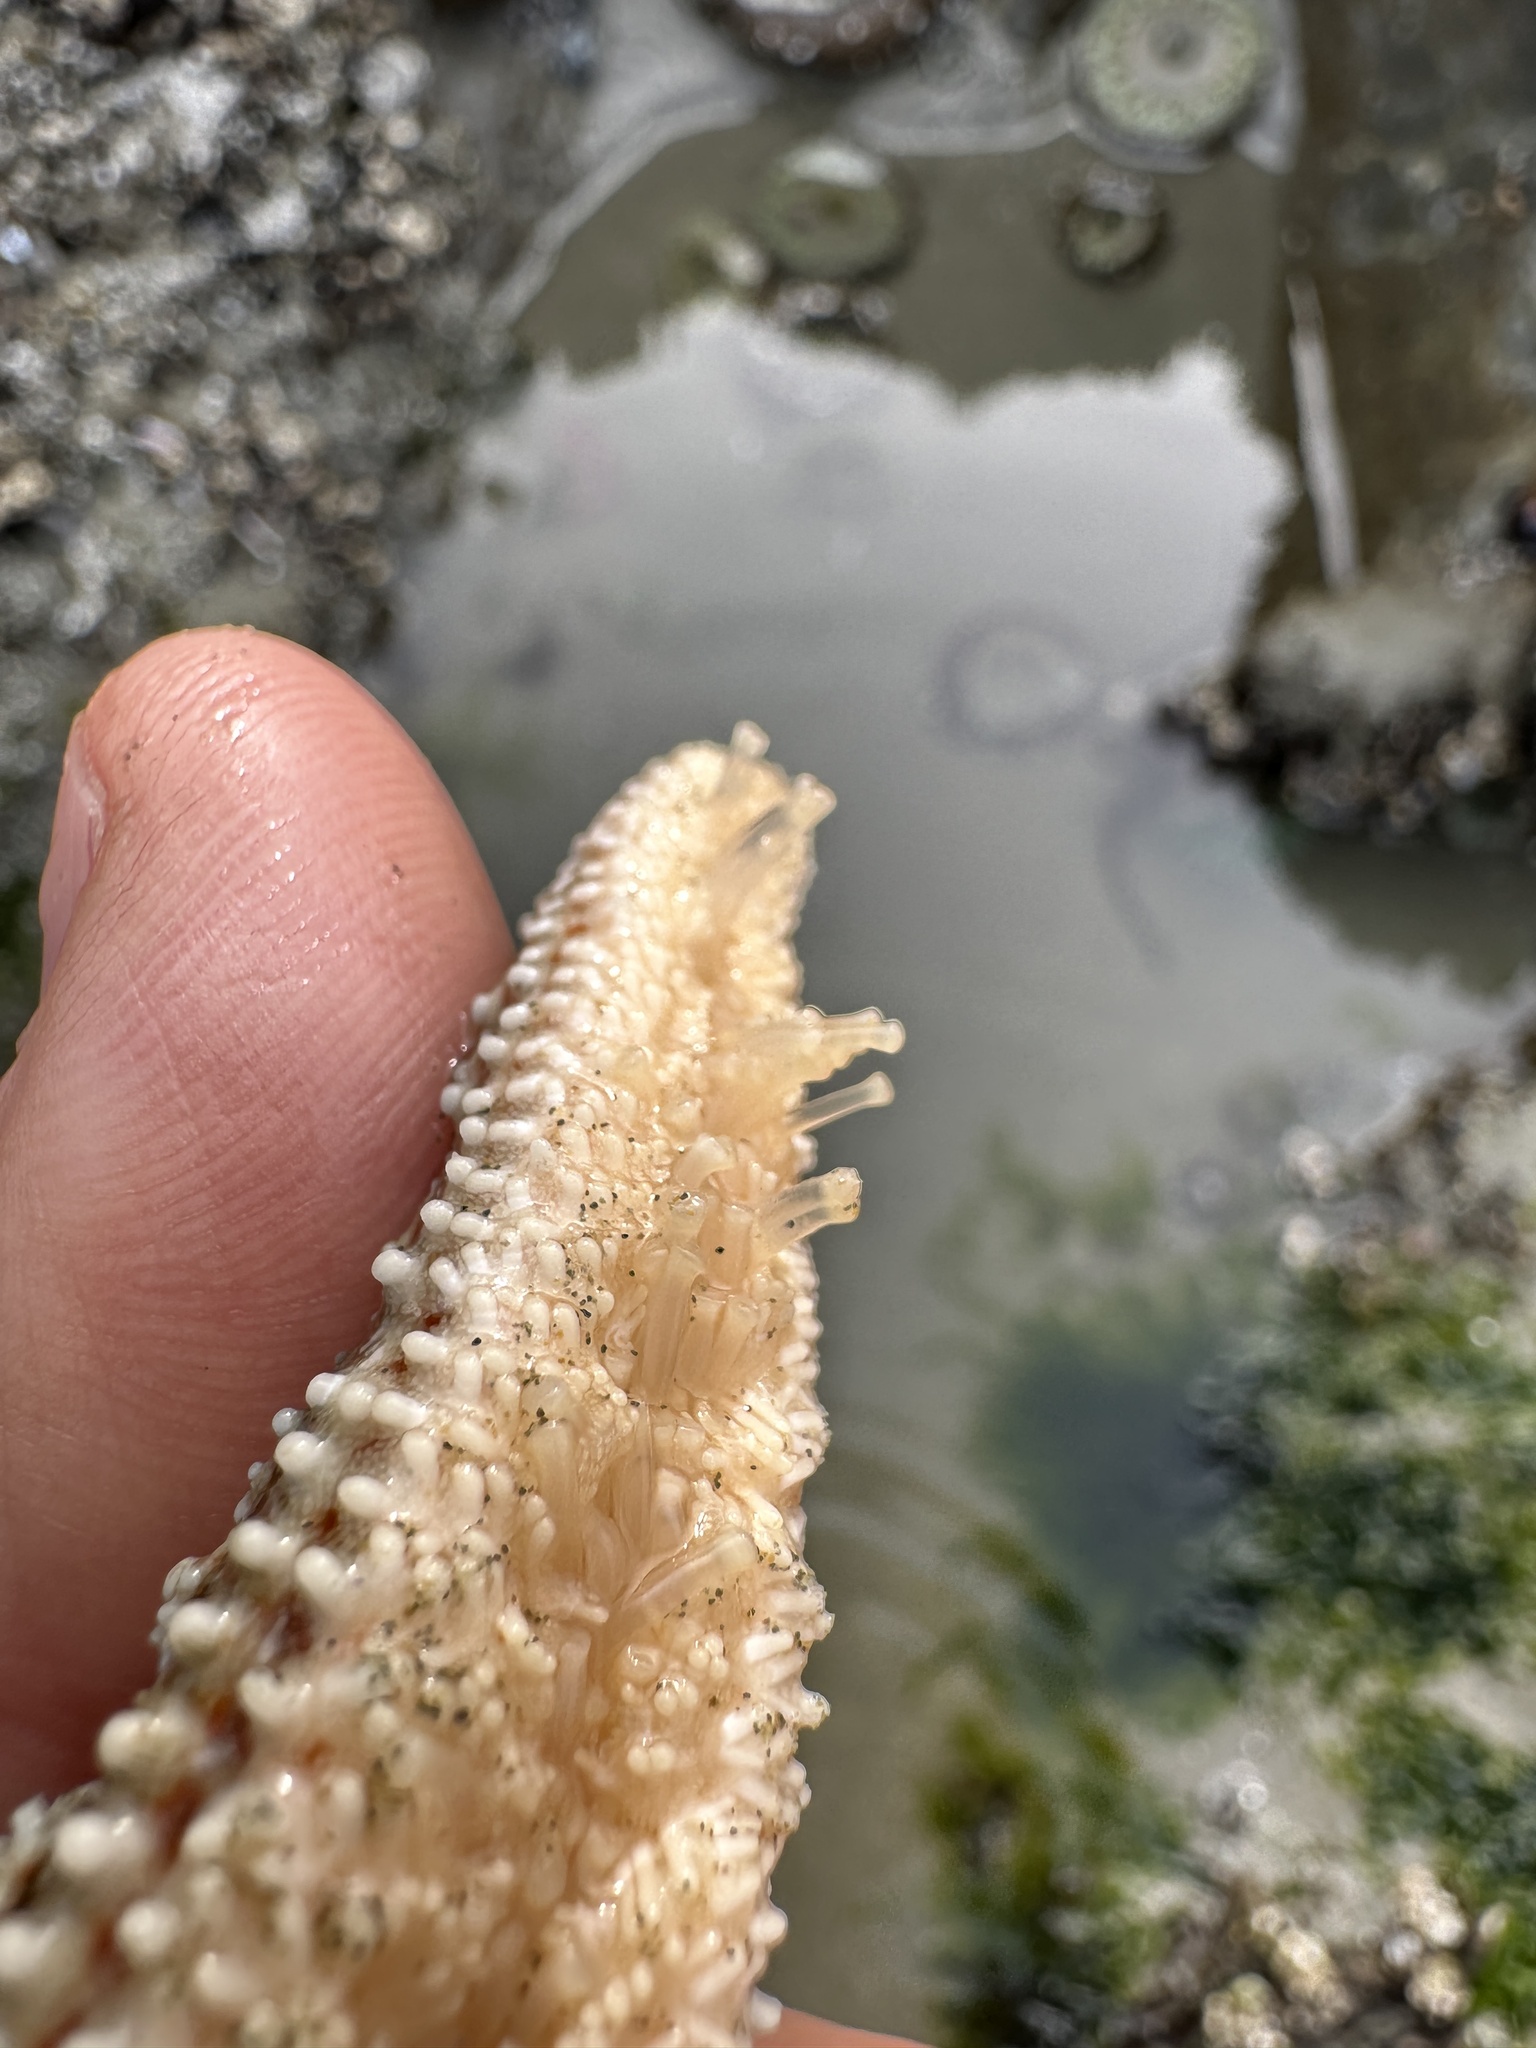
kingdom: Animalia
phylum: Echinodermata
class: Asteroidea
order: Forcipulatida
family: Asteriidae
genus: Evasterias
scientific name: Evasterias troschelii
